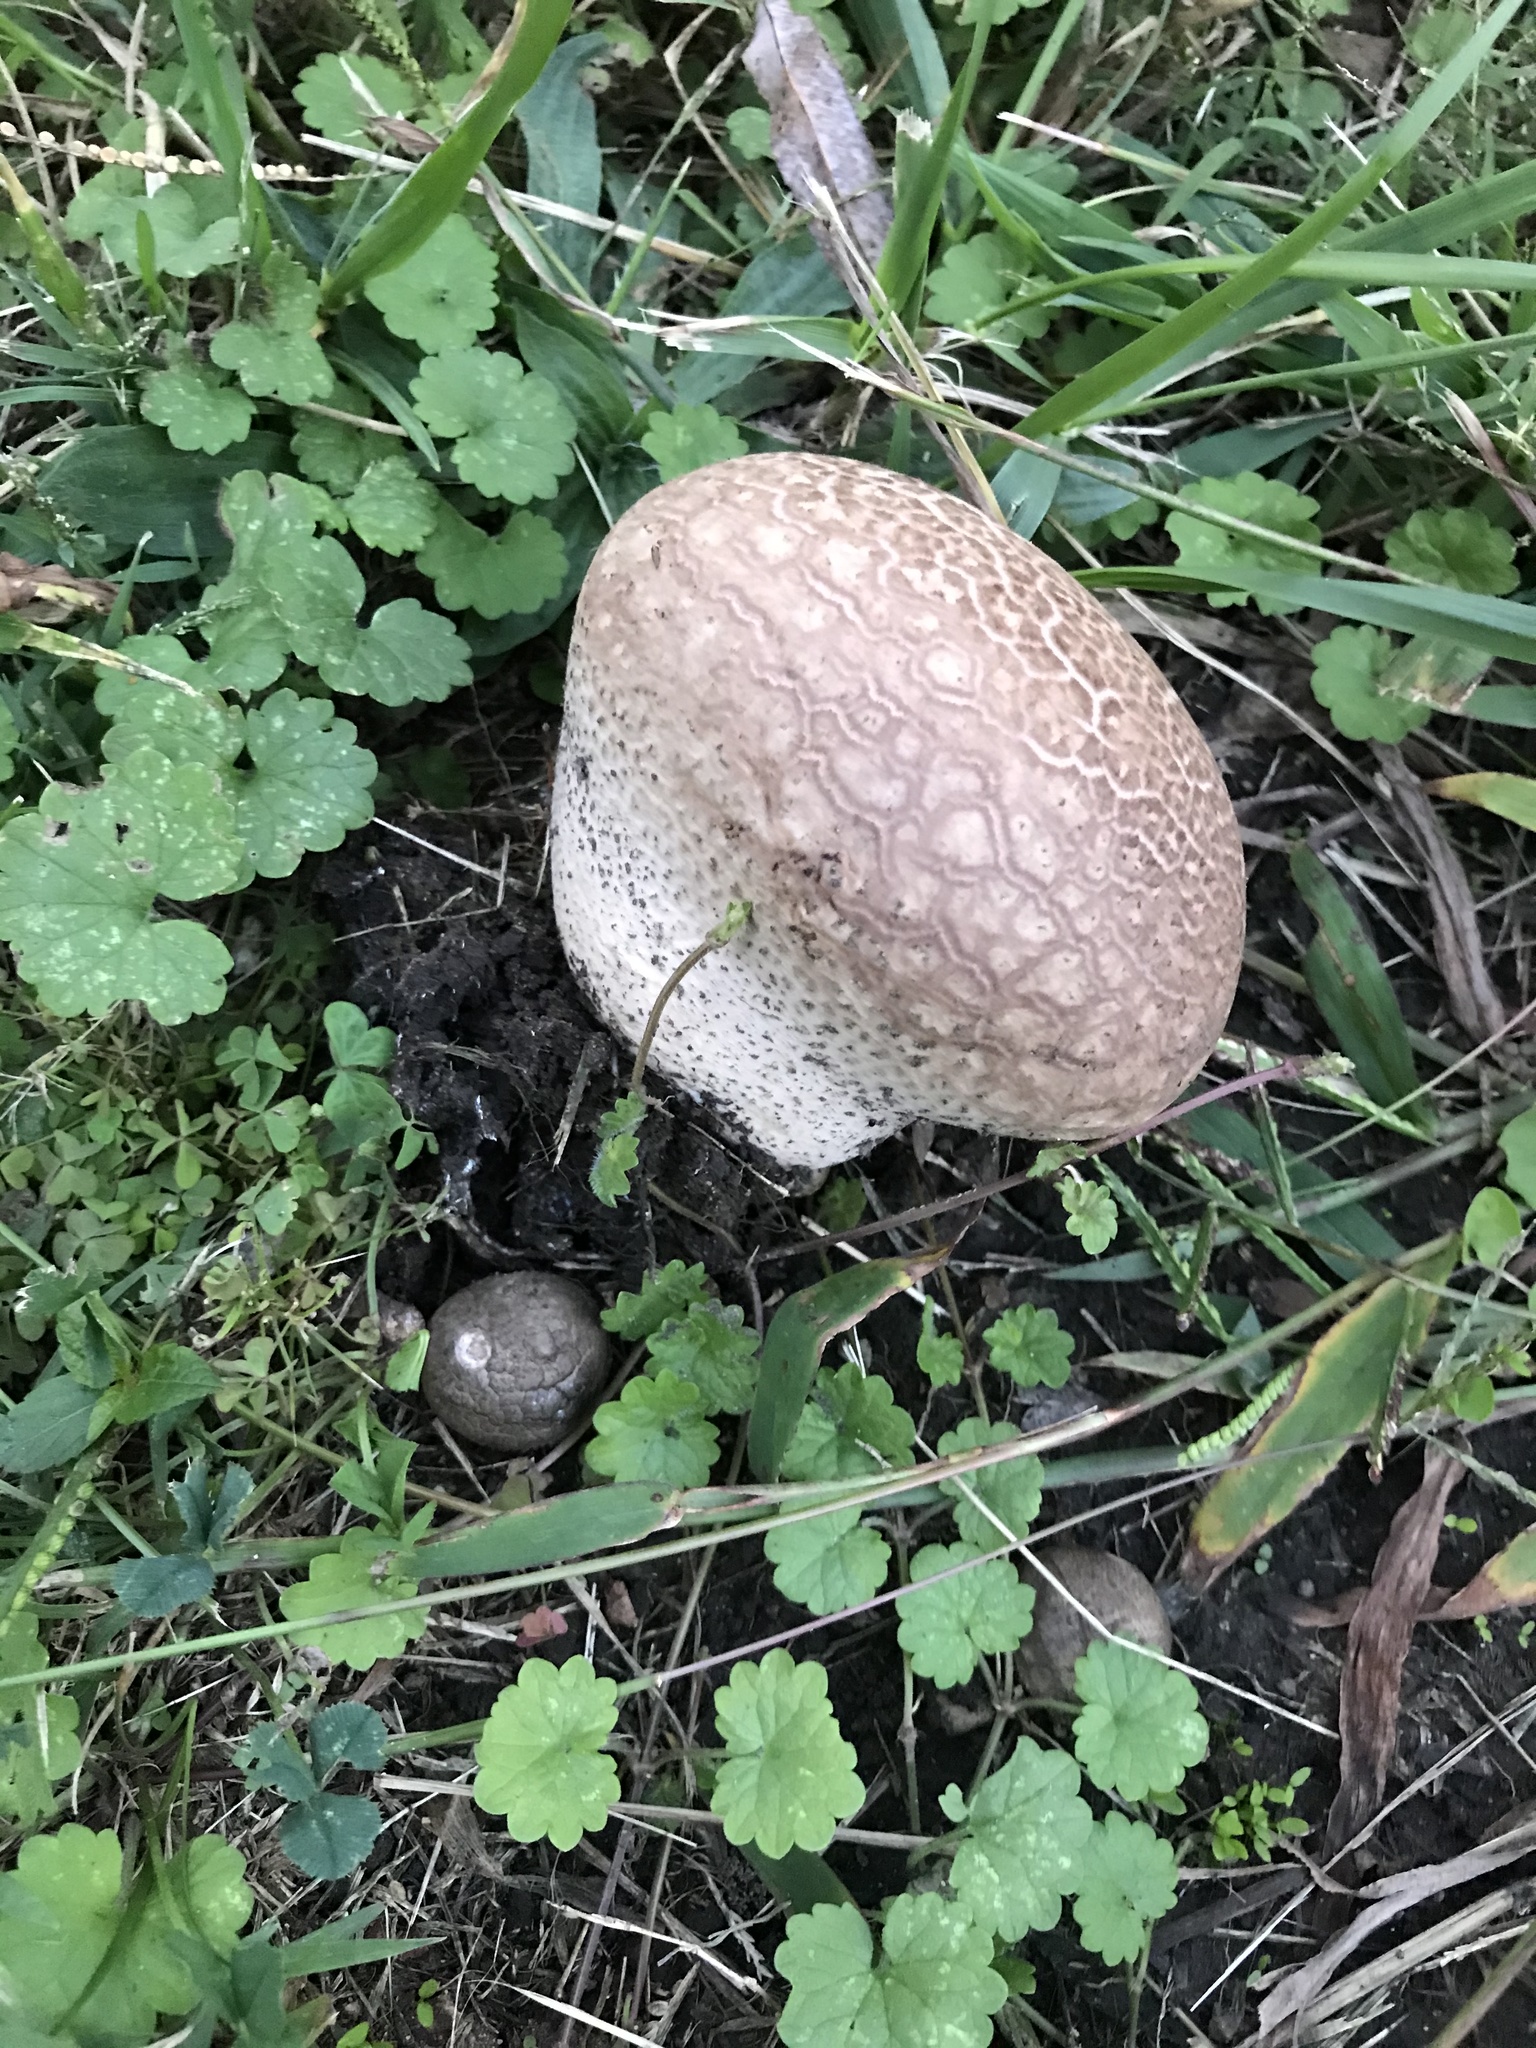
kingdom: Fungi
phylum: Basidiomycota
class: Agaricomycetes
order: Agaricales
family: Lycoperdaceae
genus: Calvatia
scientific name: Calvatia cyathiformis
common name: Purple-spored puffball
